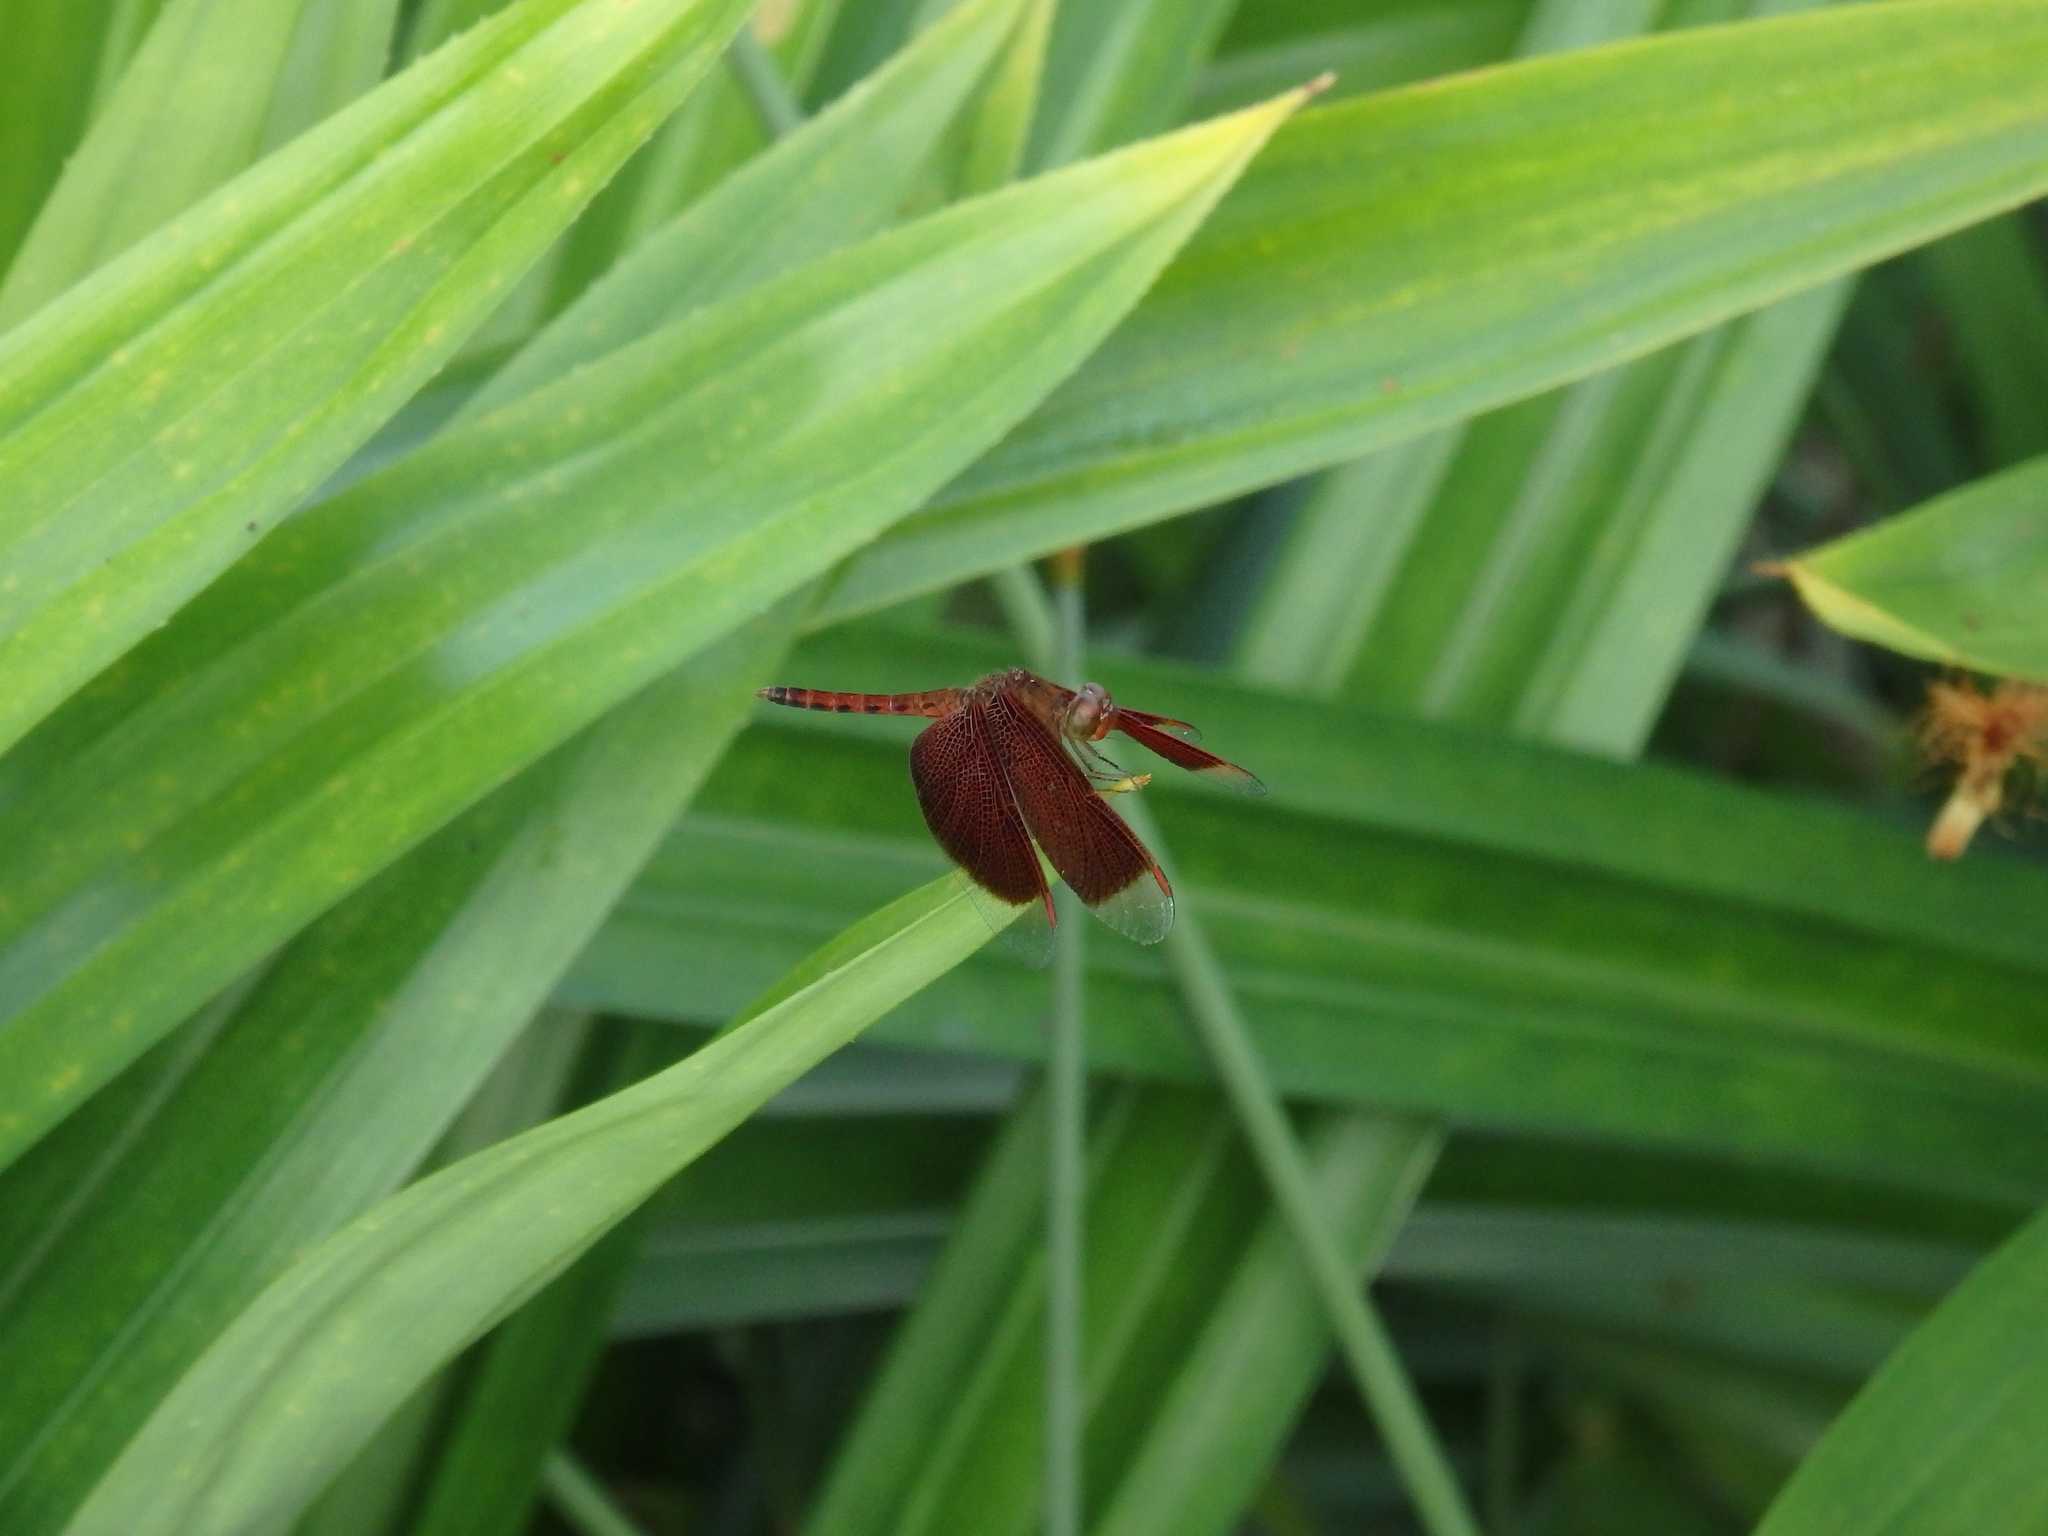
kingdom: Animalia
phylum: Arthropoda
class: Insecta
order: Odonata
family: Libellulidae
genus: Neurothemis
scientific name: Neurothemis fluctuans
